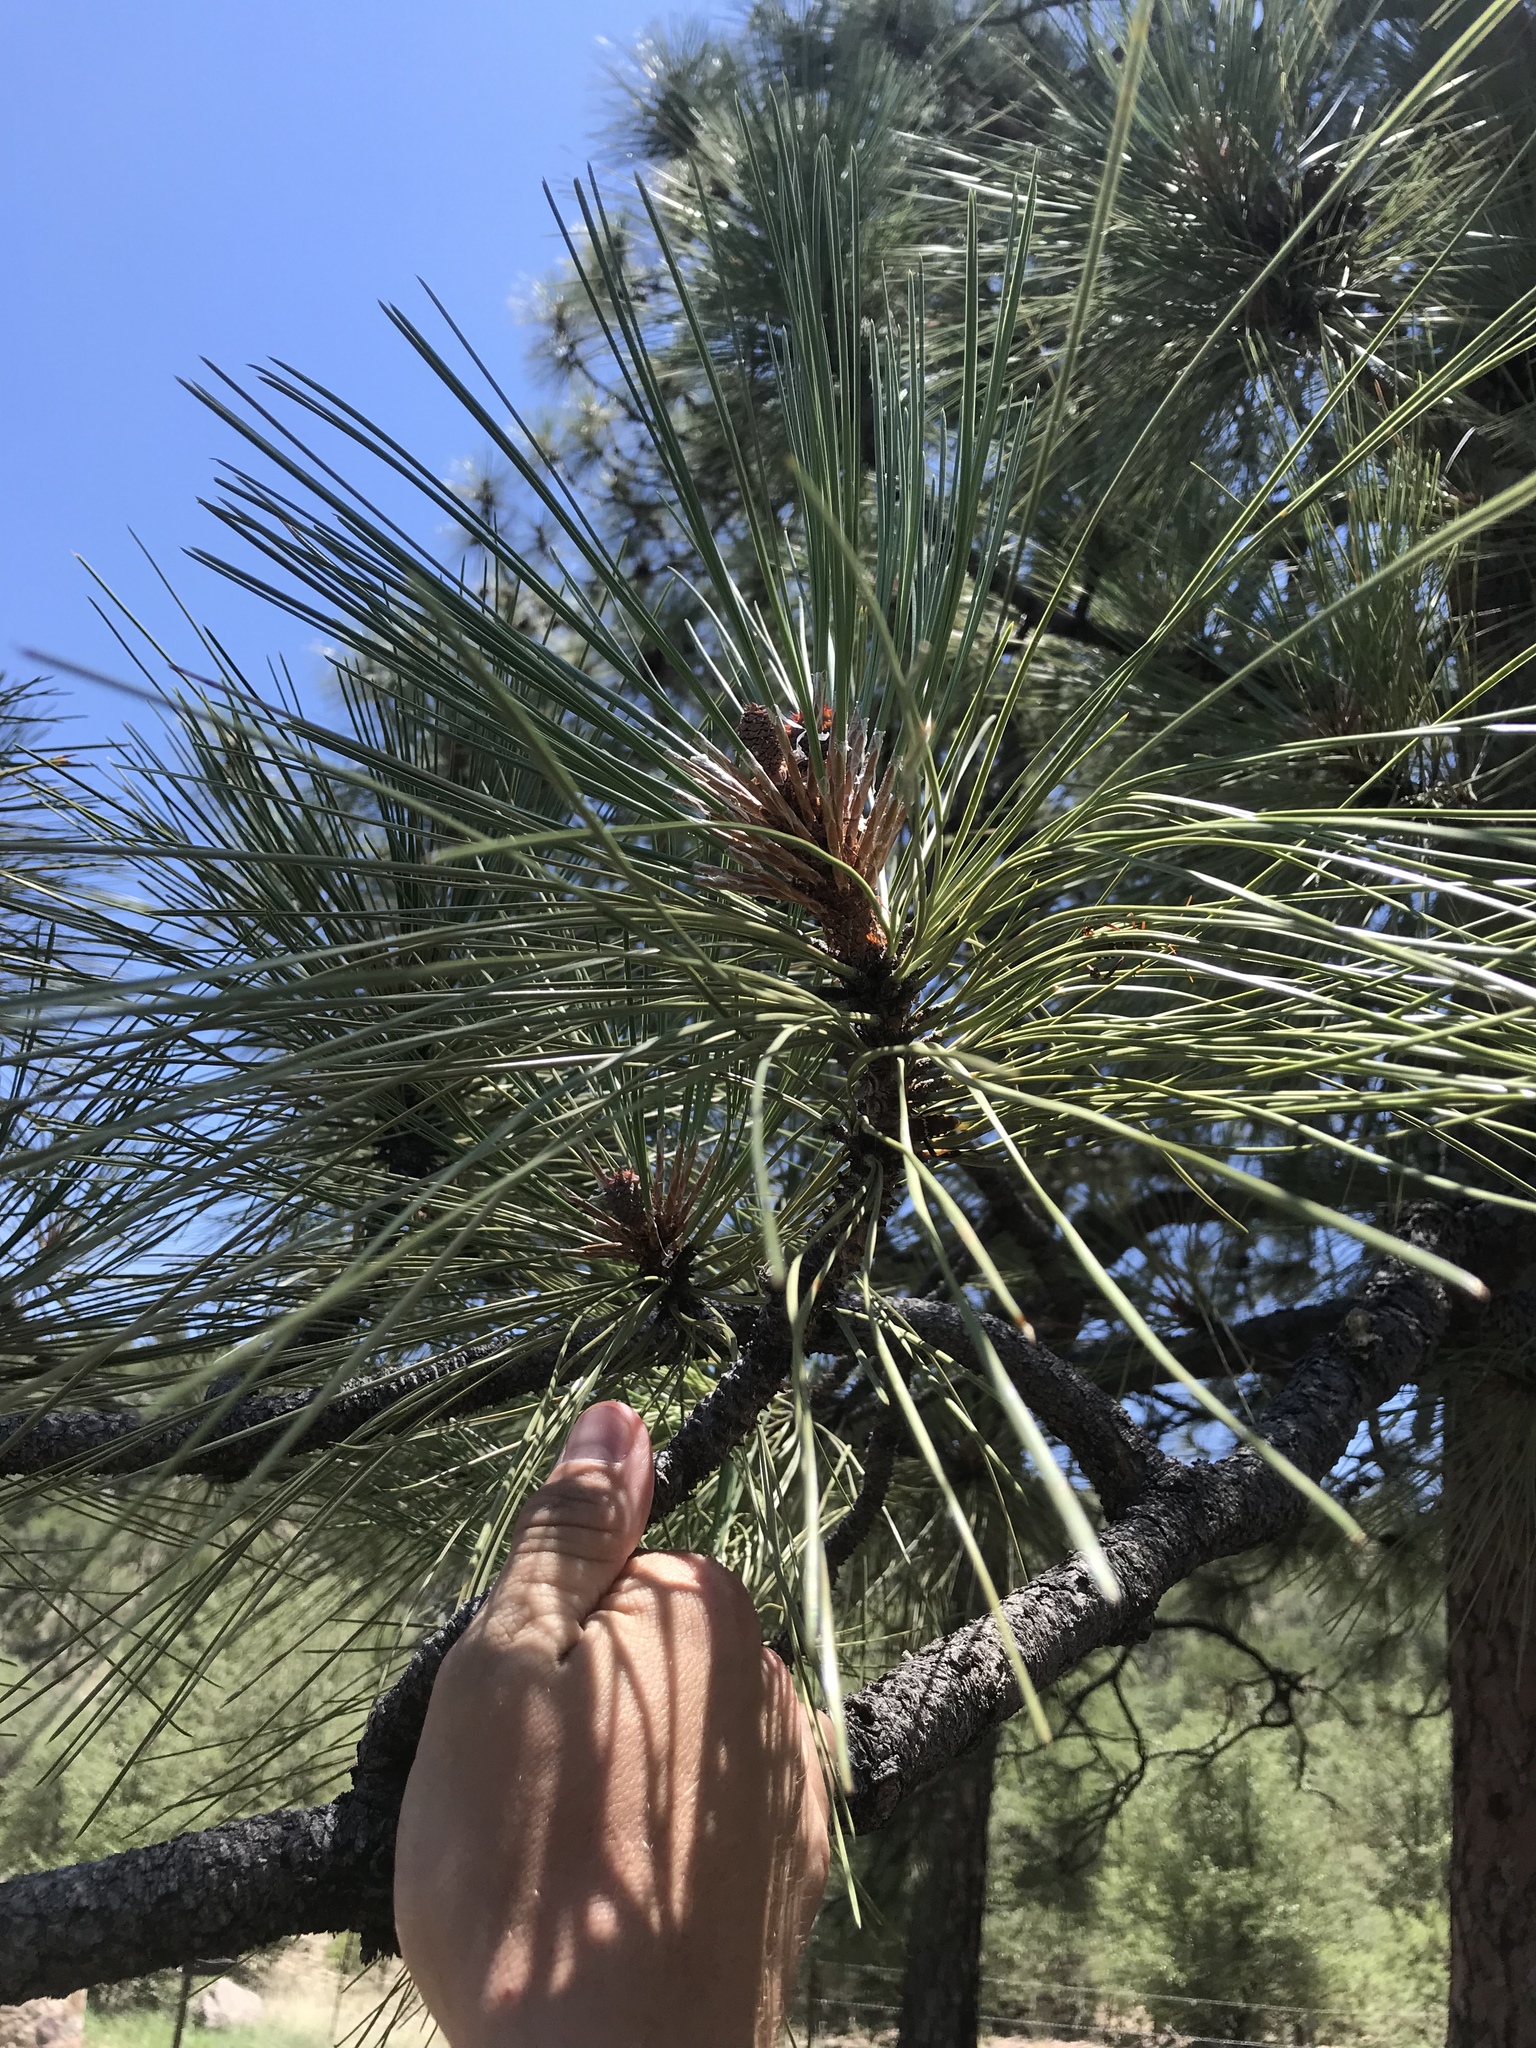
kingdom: Plantae
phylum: Tracheophyta
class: Pinopsida
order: Pinales
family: Pinaceae
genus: Pinus
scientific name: Pinus ponderosa
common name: Western yellow-pine
